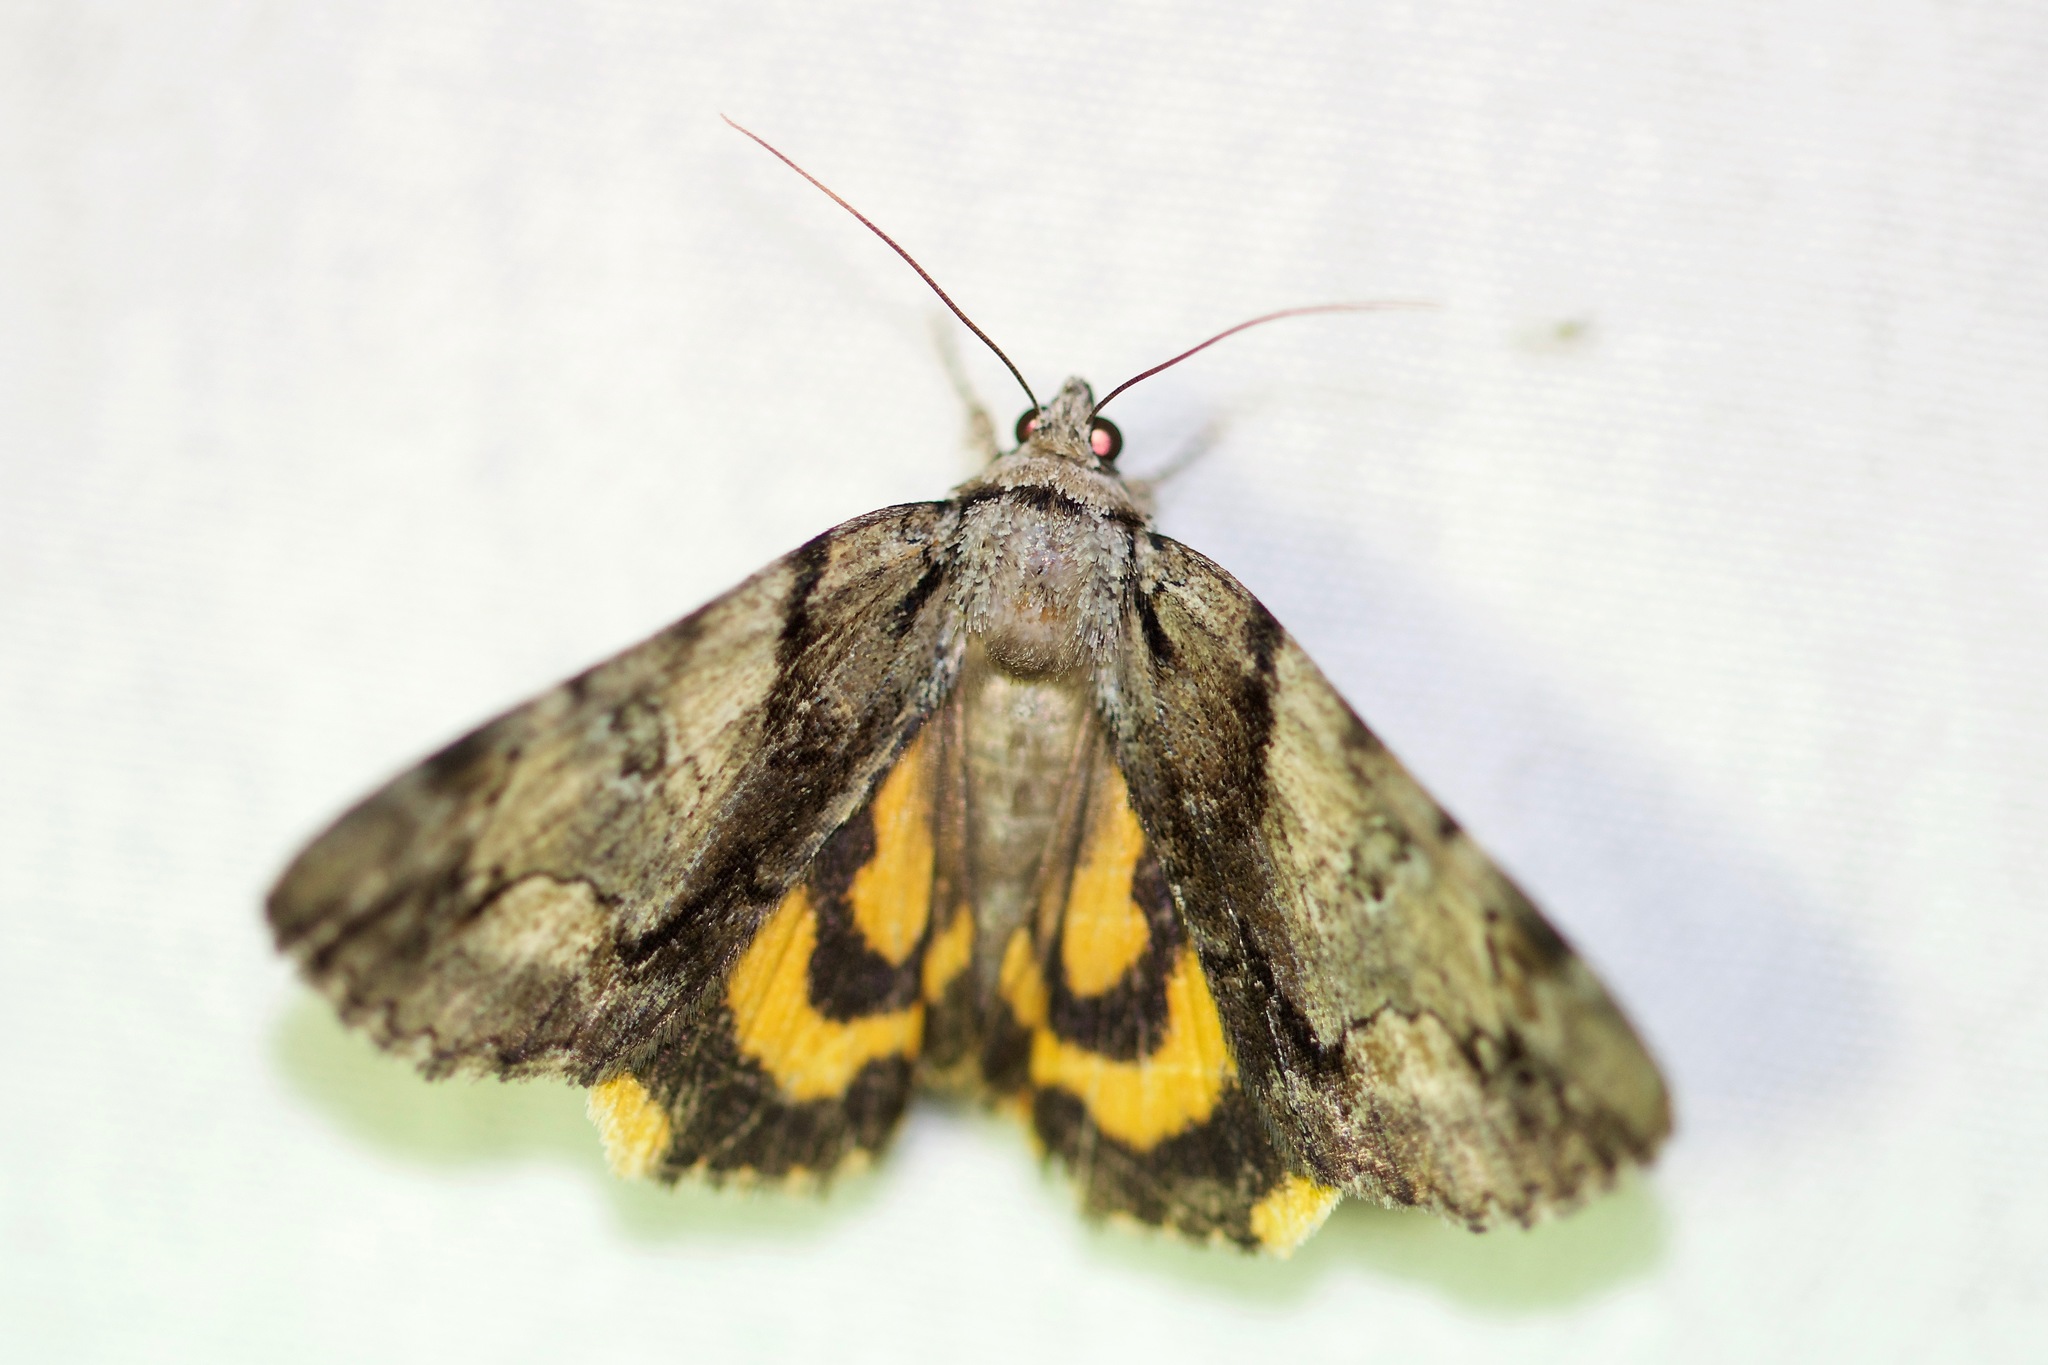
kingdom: Animalia
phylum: Arthropoda
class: Insecta
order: Lepidoptera
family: Erebidae
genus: Catocala
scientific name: Catocala crataegi
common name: Hawthorn underwing moth
